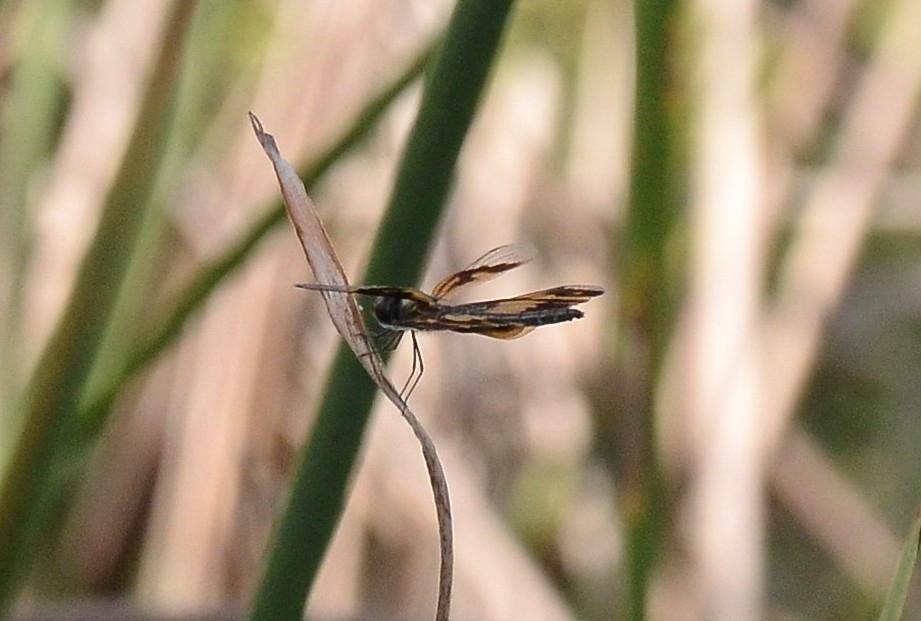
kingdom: Animalia
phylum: Arthropoda
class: Insecta
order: Odonata
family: Libellulidae
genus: Rhyothemis
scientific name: Rhyothemis variegata
